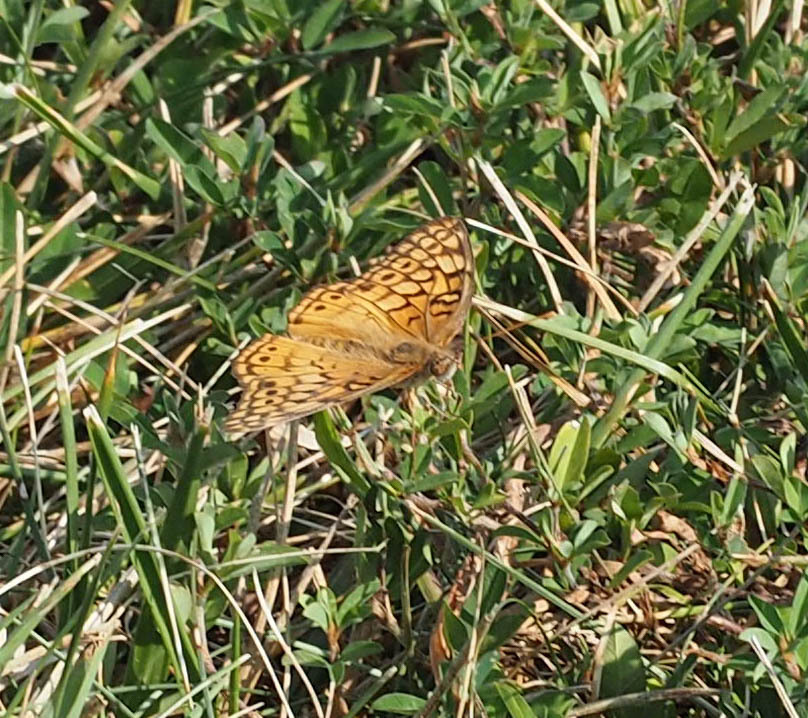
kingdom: Animalia
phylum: Arthropoda
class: Insecta
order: Lepidoptera
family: Nymphalidae
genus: Euptoieta
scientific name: Euptoieta claudia
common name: Variegated fritillary
